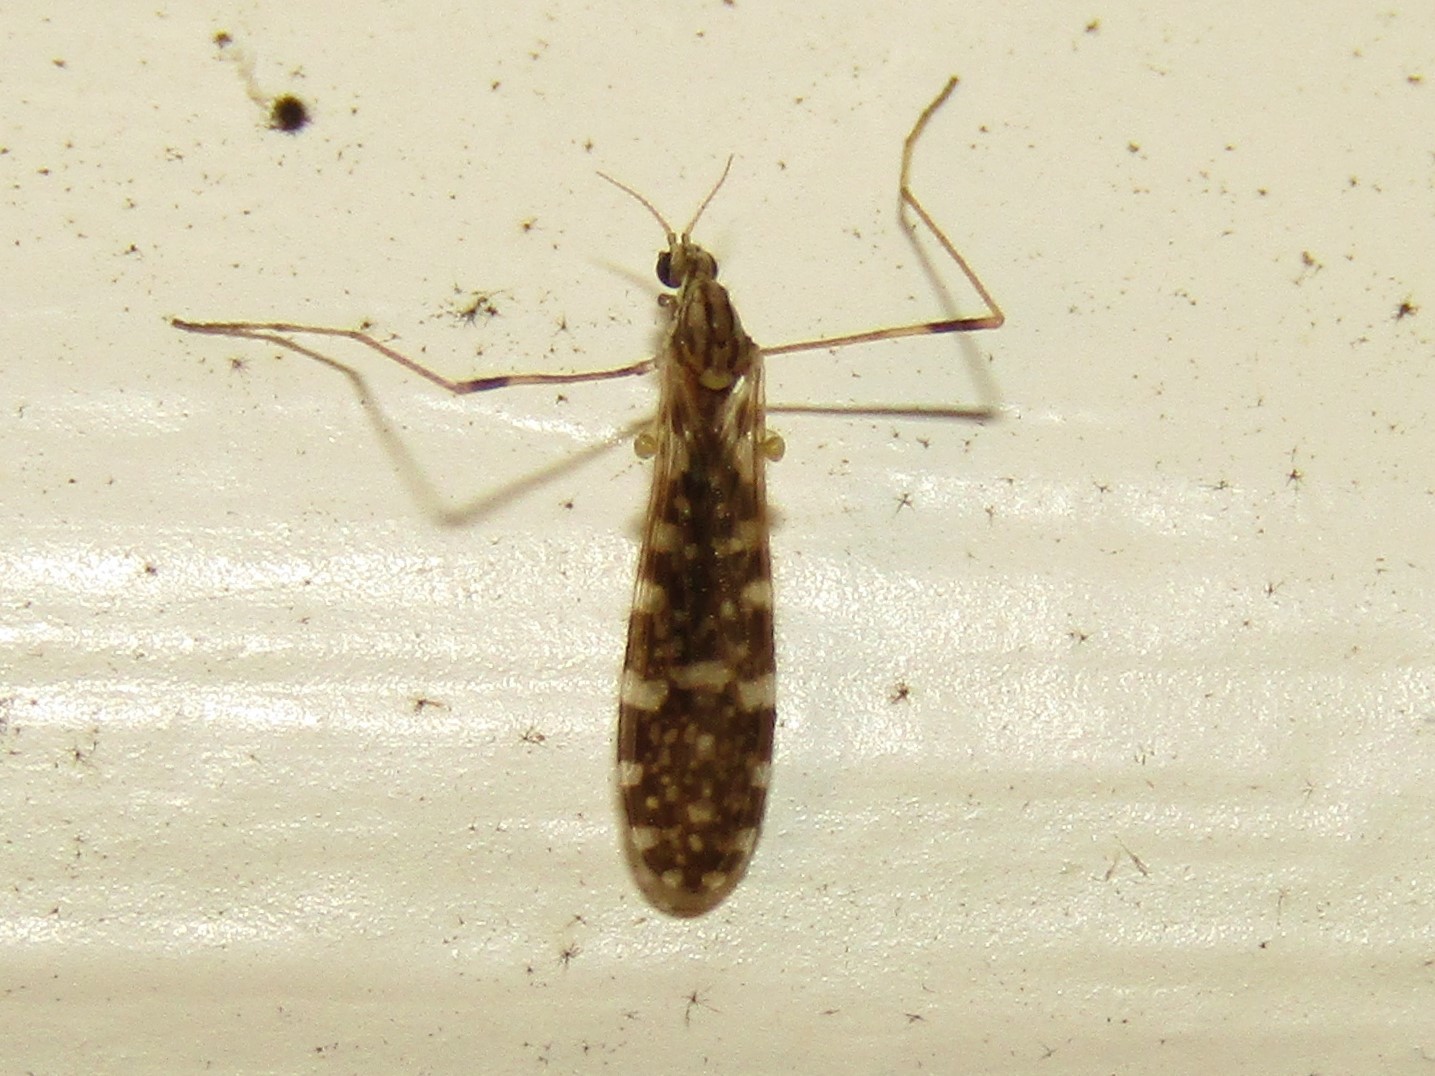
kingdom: Animalia
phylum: Arthropoda
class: Insecta
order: Diptera
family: Limoniidae
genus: Erioptera
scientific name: Erioptera needhami
